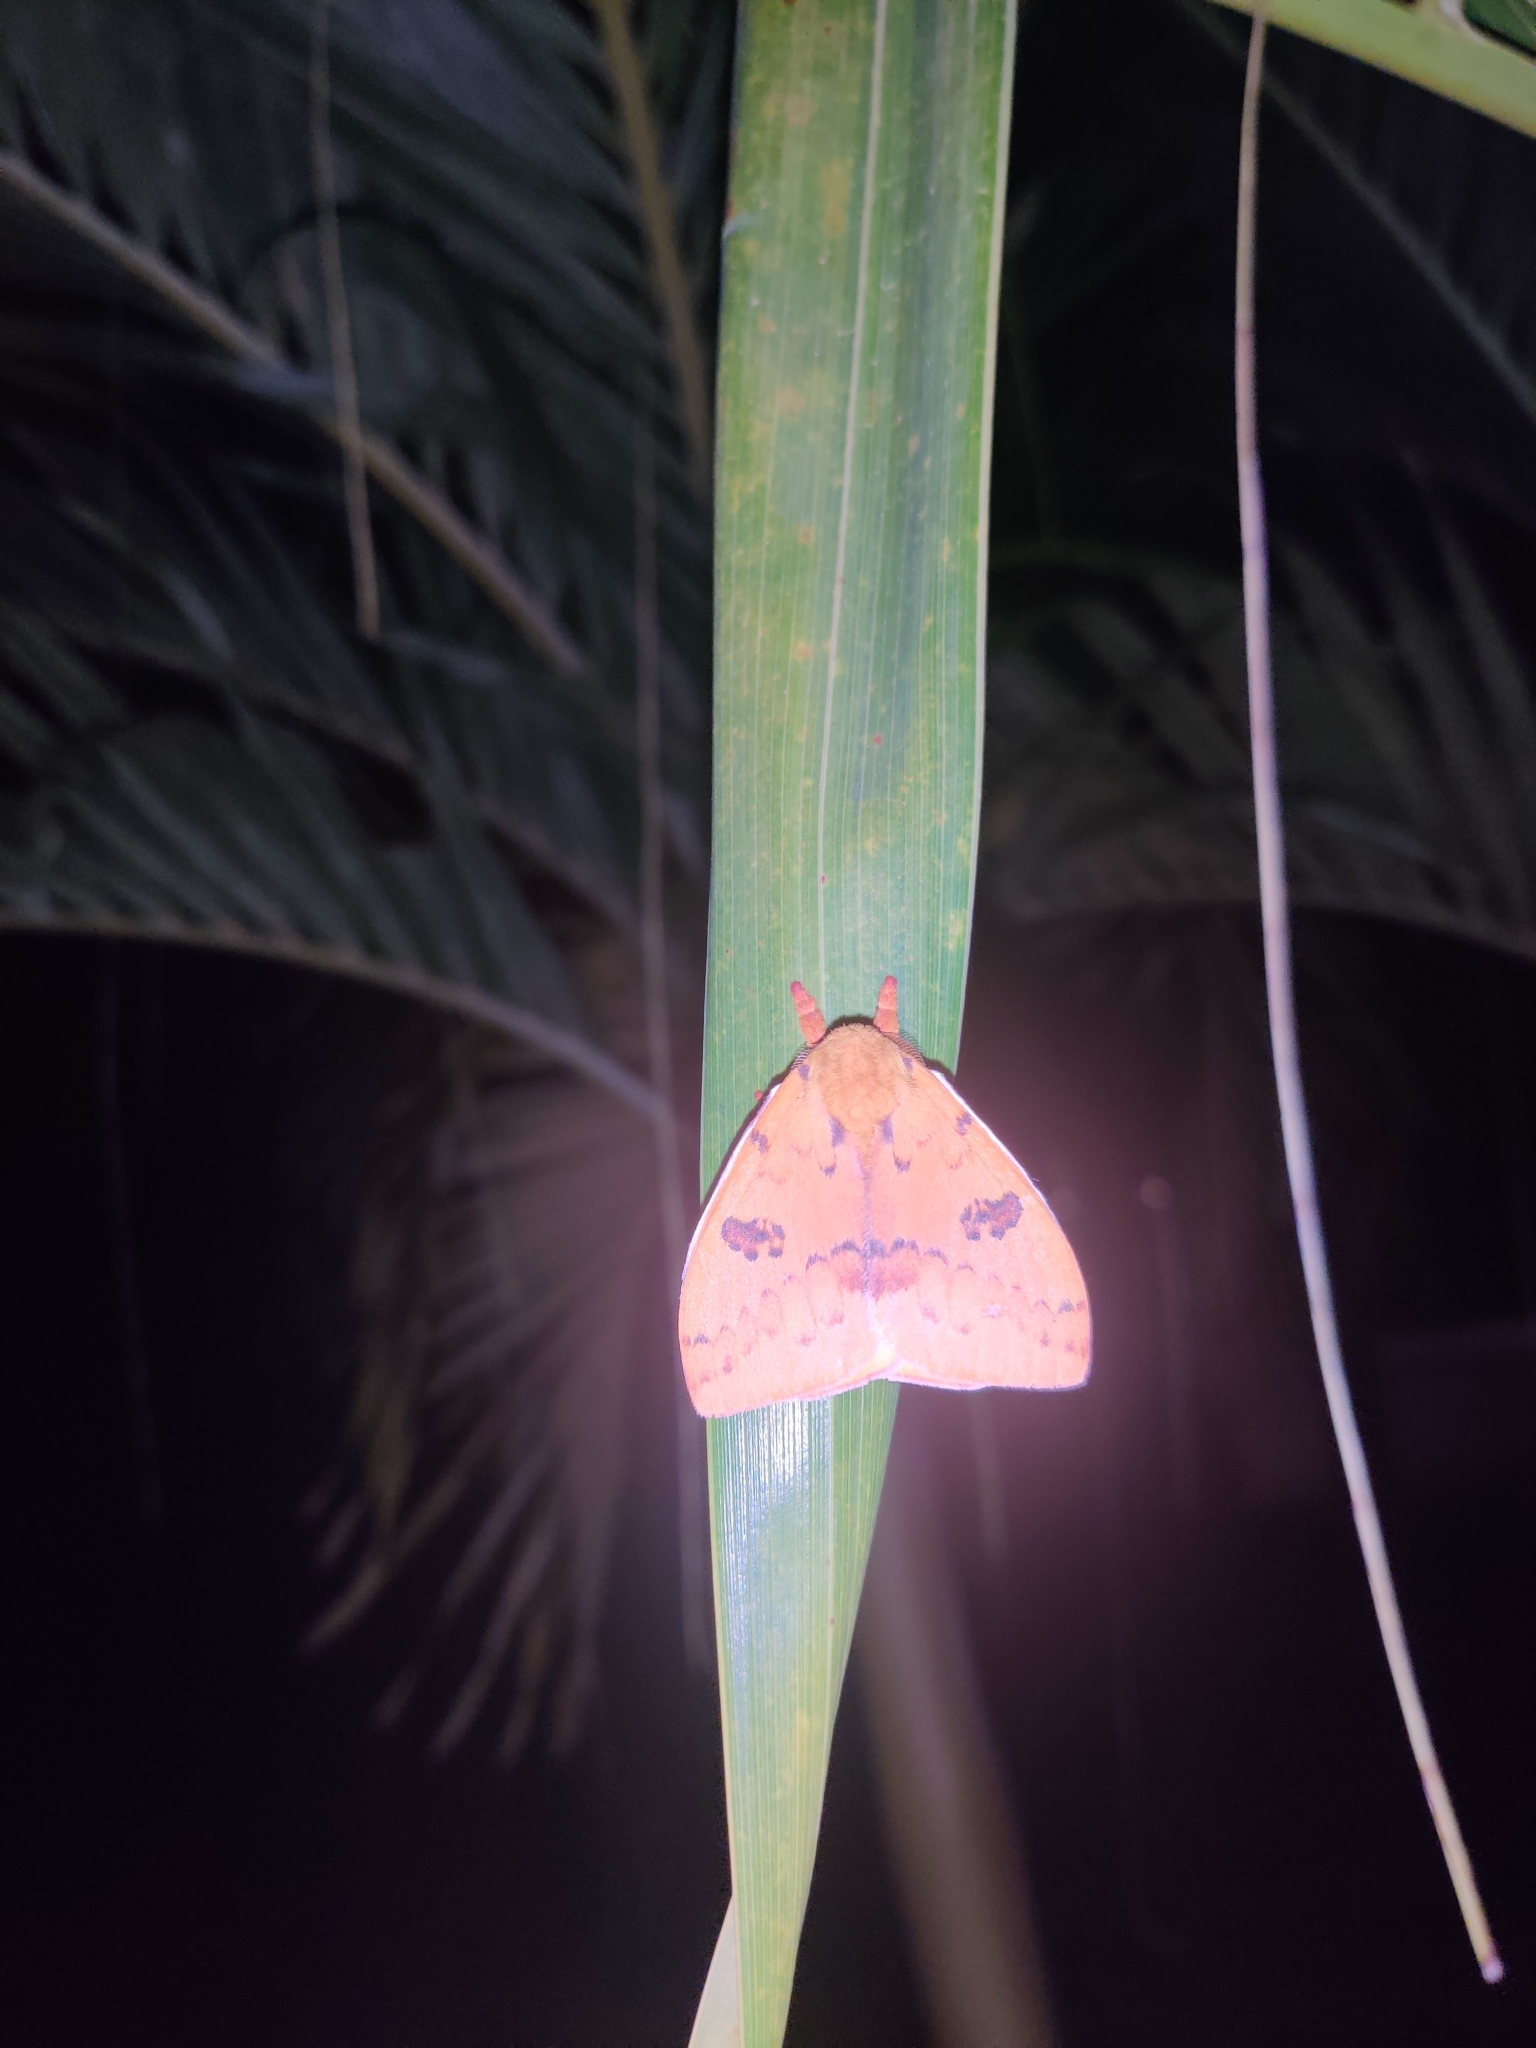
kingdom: Animalia
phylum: Arthropoda
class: Insecta
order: Lepidoptera
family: Saturniidae
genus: Automeris
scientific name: Automeris io
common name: Io moth
